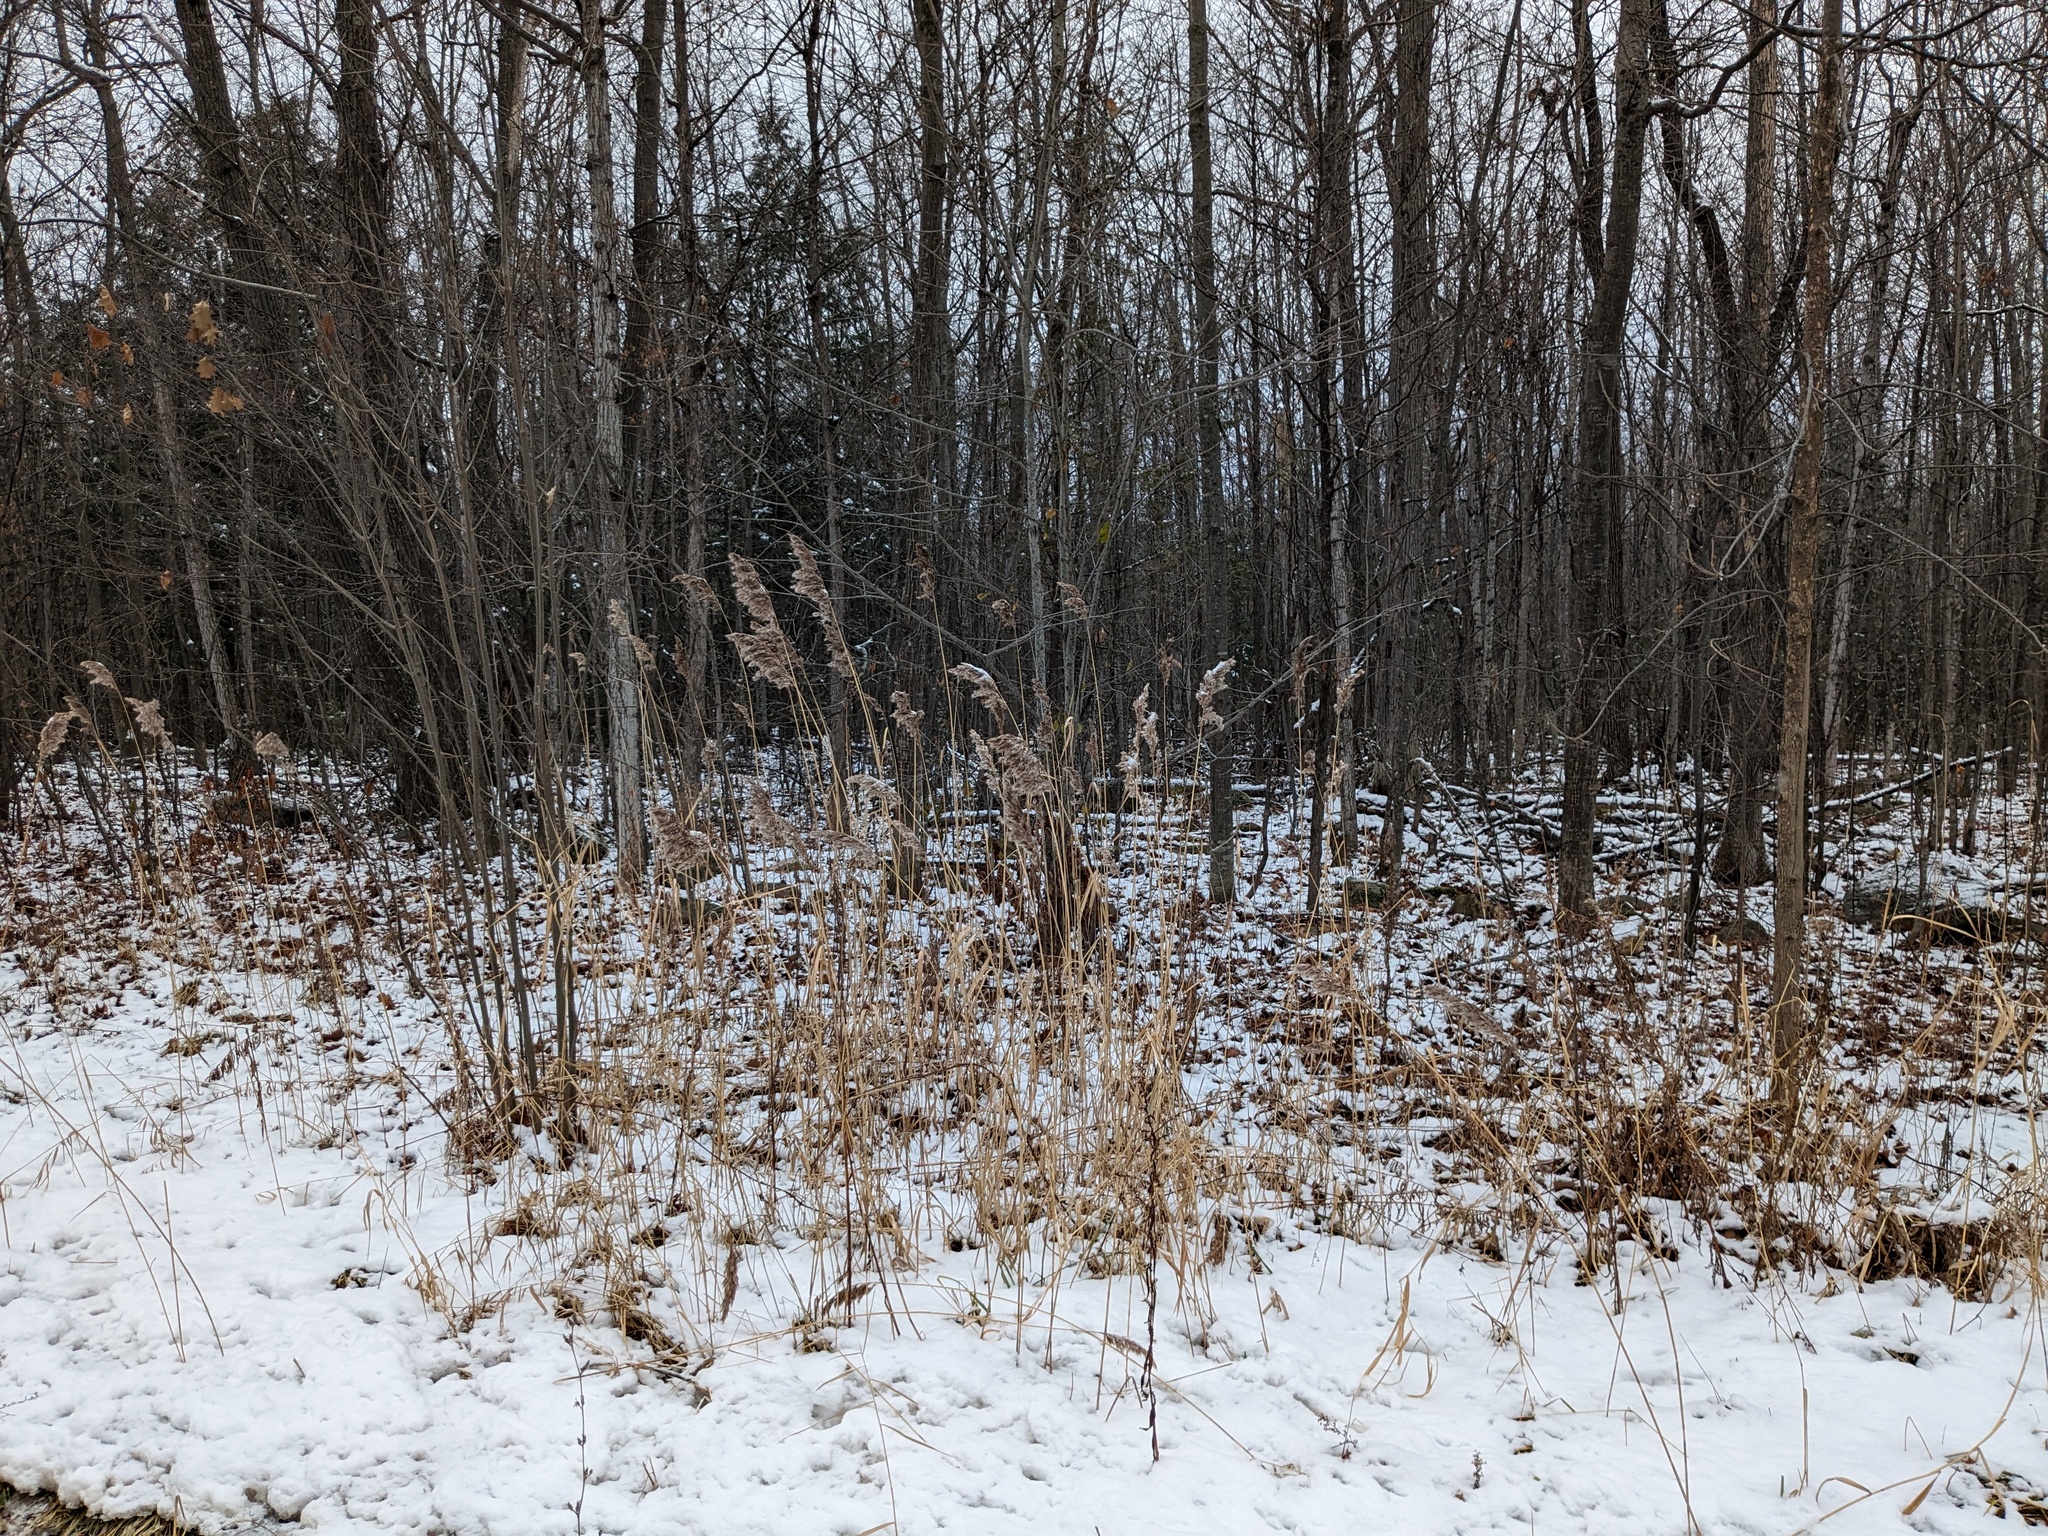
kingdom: Plantae
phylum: Tracheophyta
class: Liliopsida
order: Poales
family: Poaceae
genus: Phragmites
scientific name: Phragmites australis
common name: Common reed
